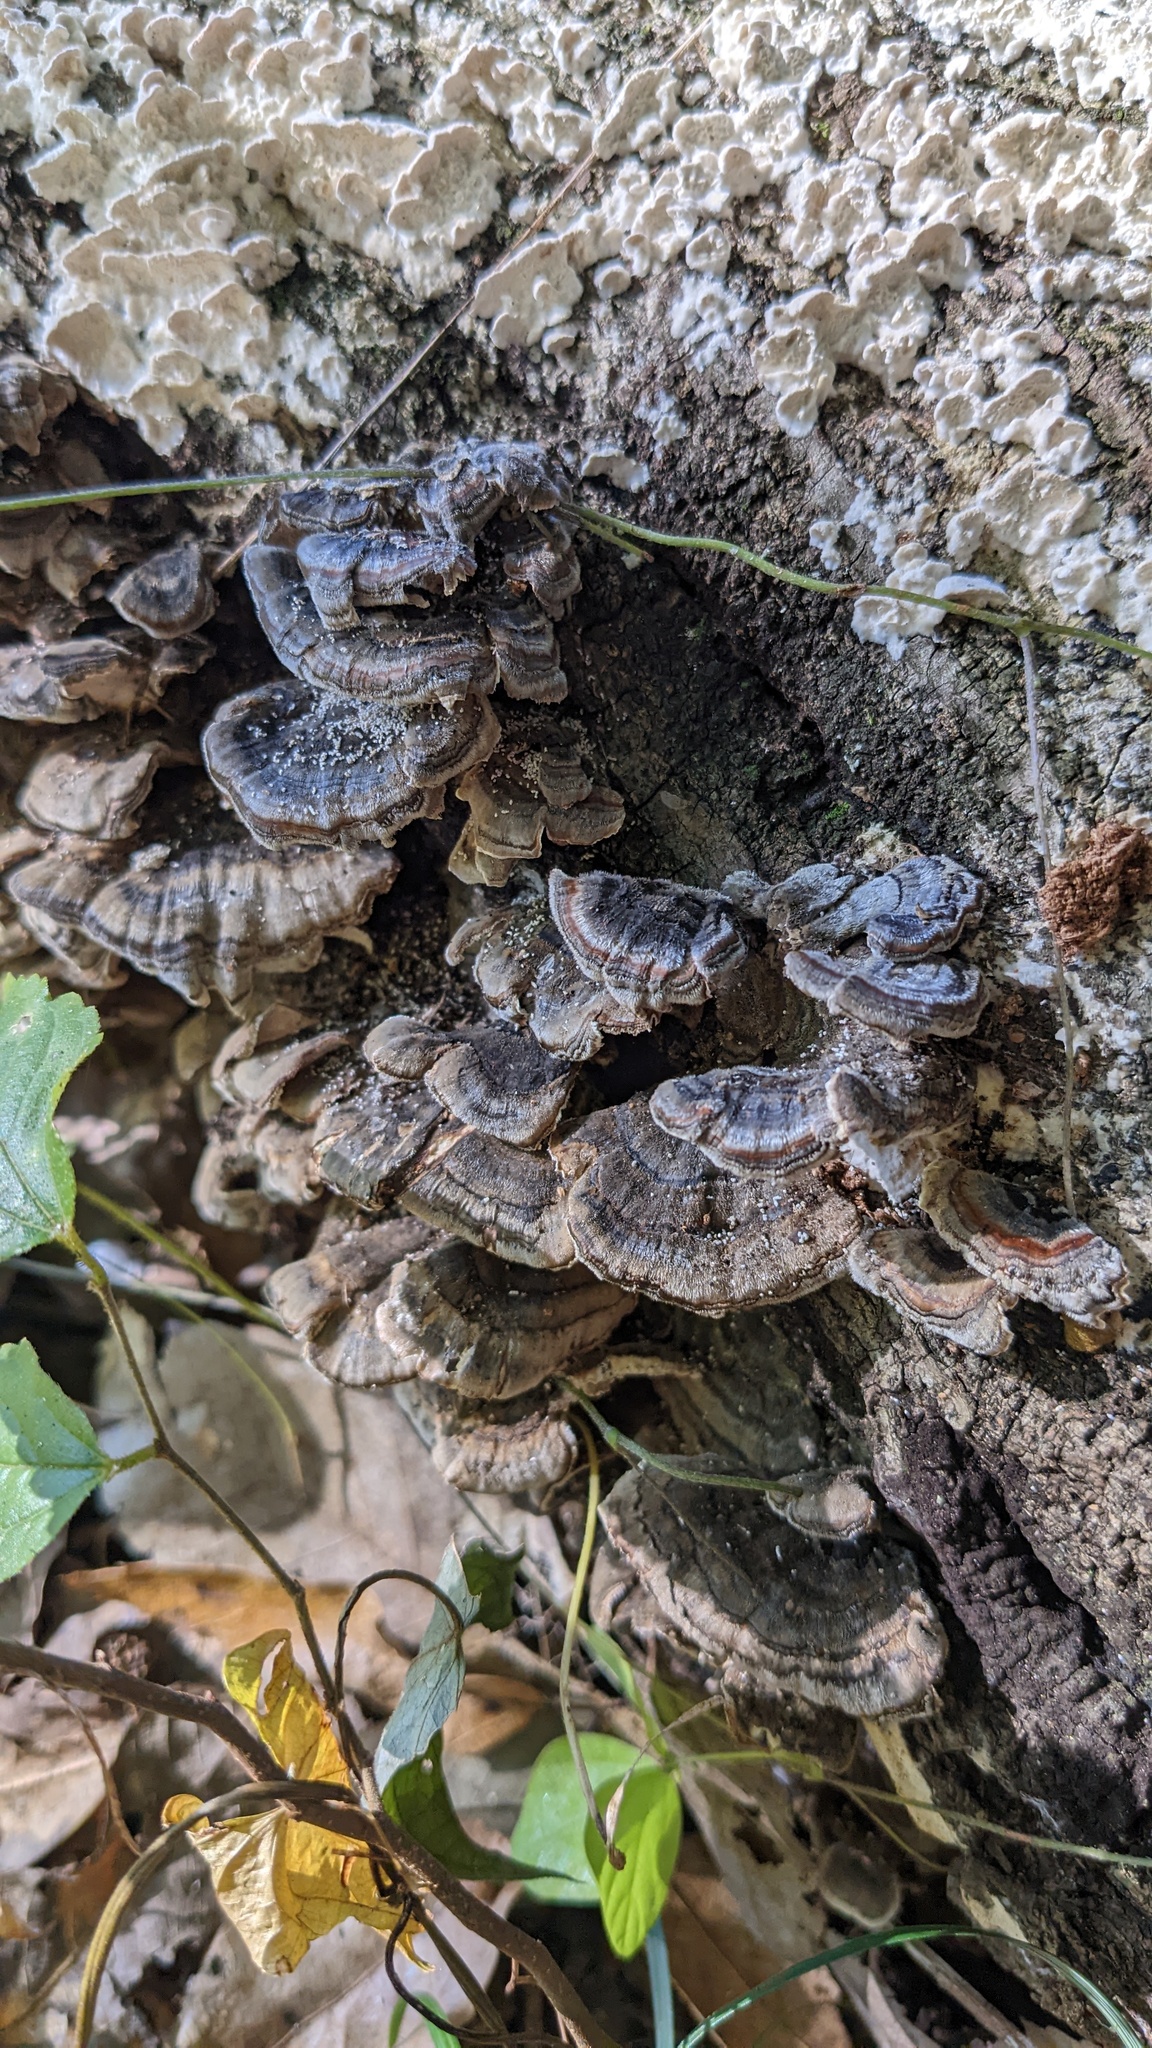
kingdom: Fungi
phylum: Basidiomycota
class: Agaricomycetes
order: Polyporales
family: Polyporaceae
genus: Trametes
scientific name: Trametes versicolor
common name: Turkeytail
